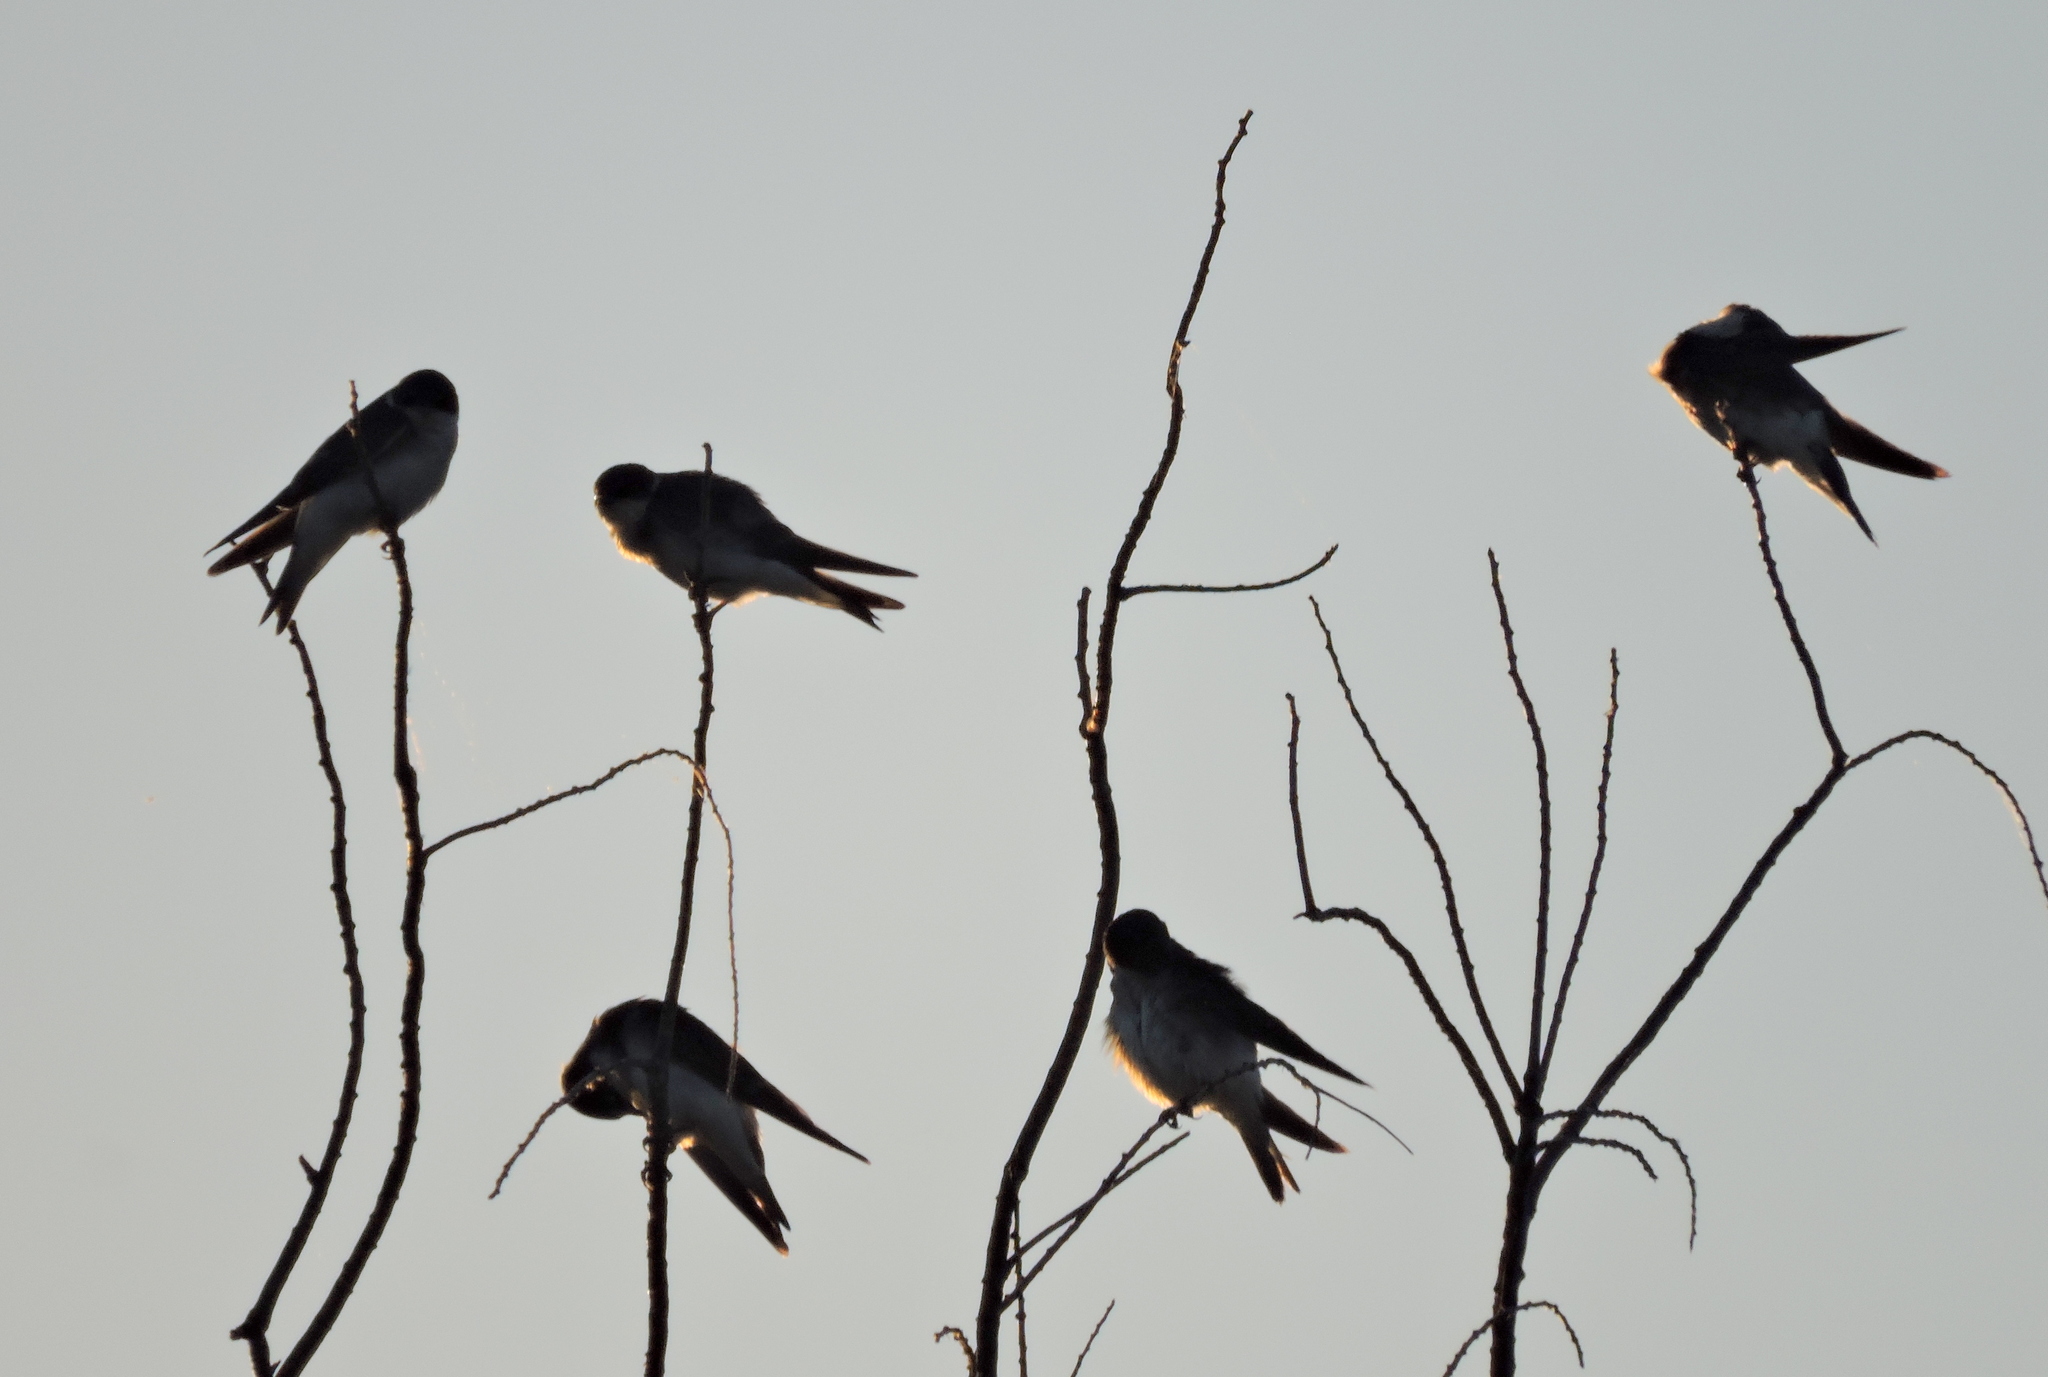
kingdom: Animalia
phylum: Chordata
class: Aves
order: Passeriformes
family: Hirundinidae
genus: Tachycineta
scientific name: Tachycineta leucopyga
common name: Chilean swallow
